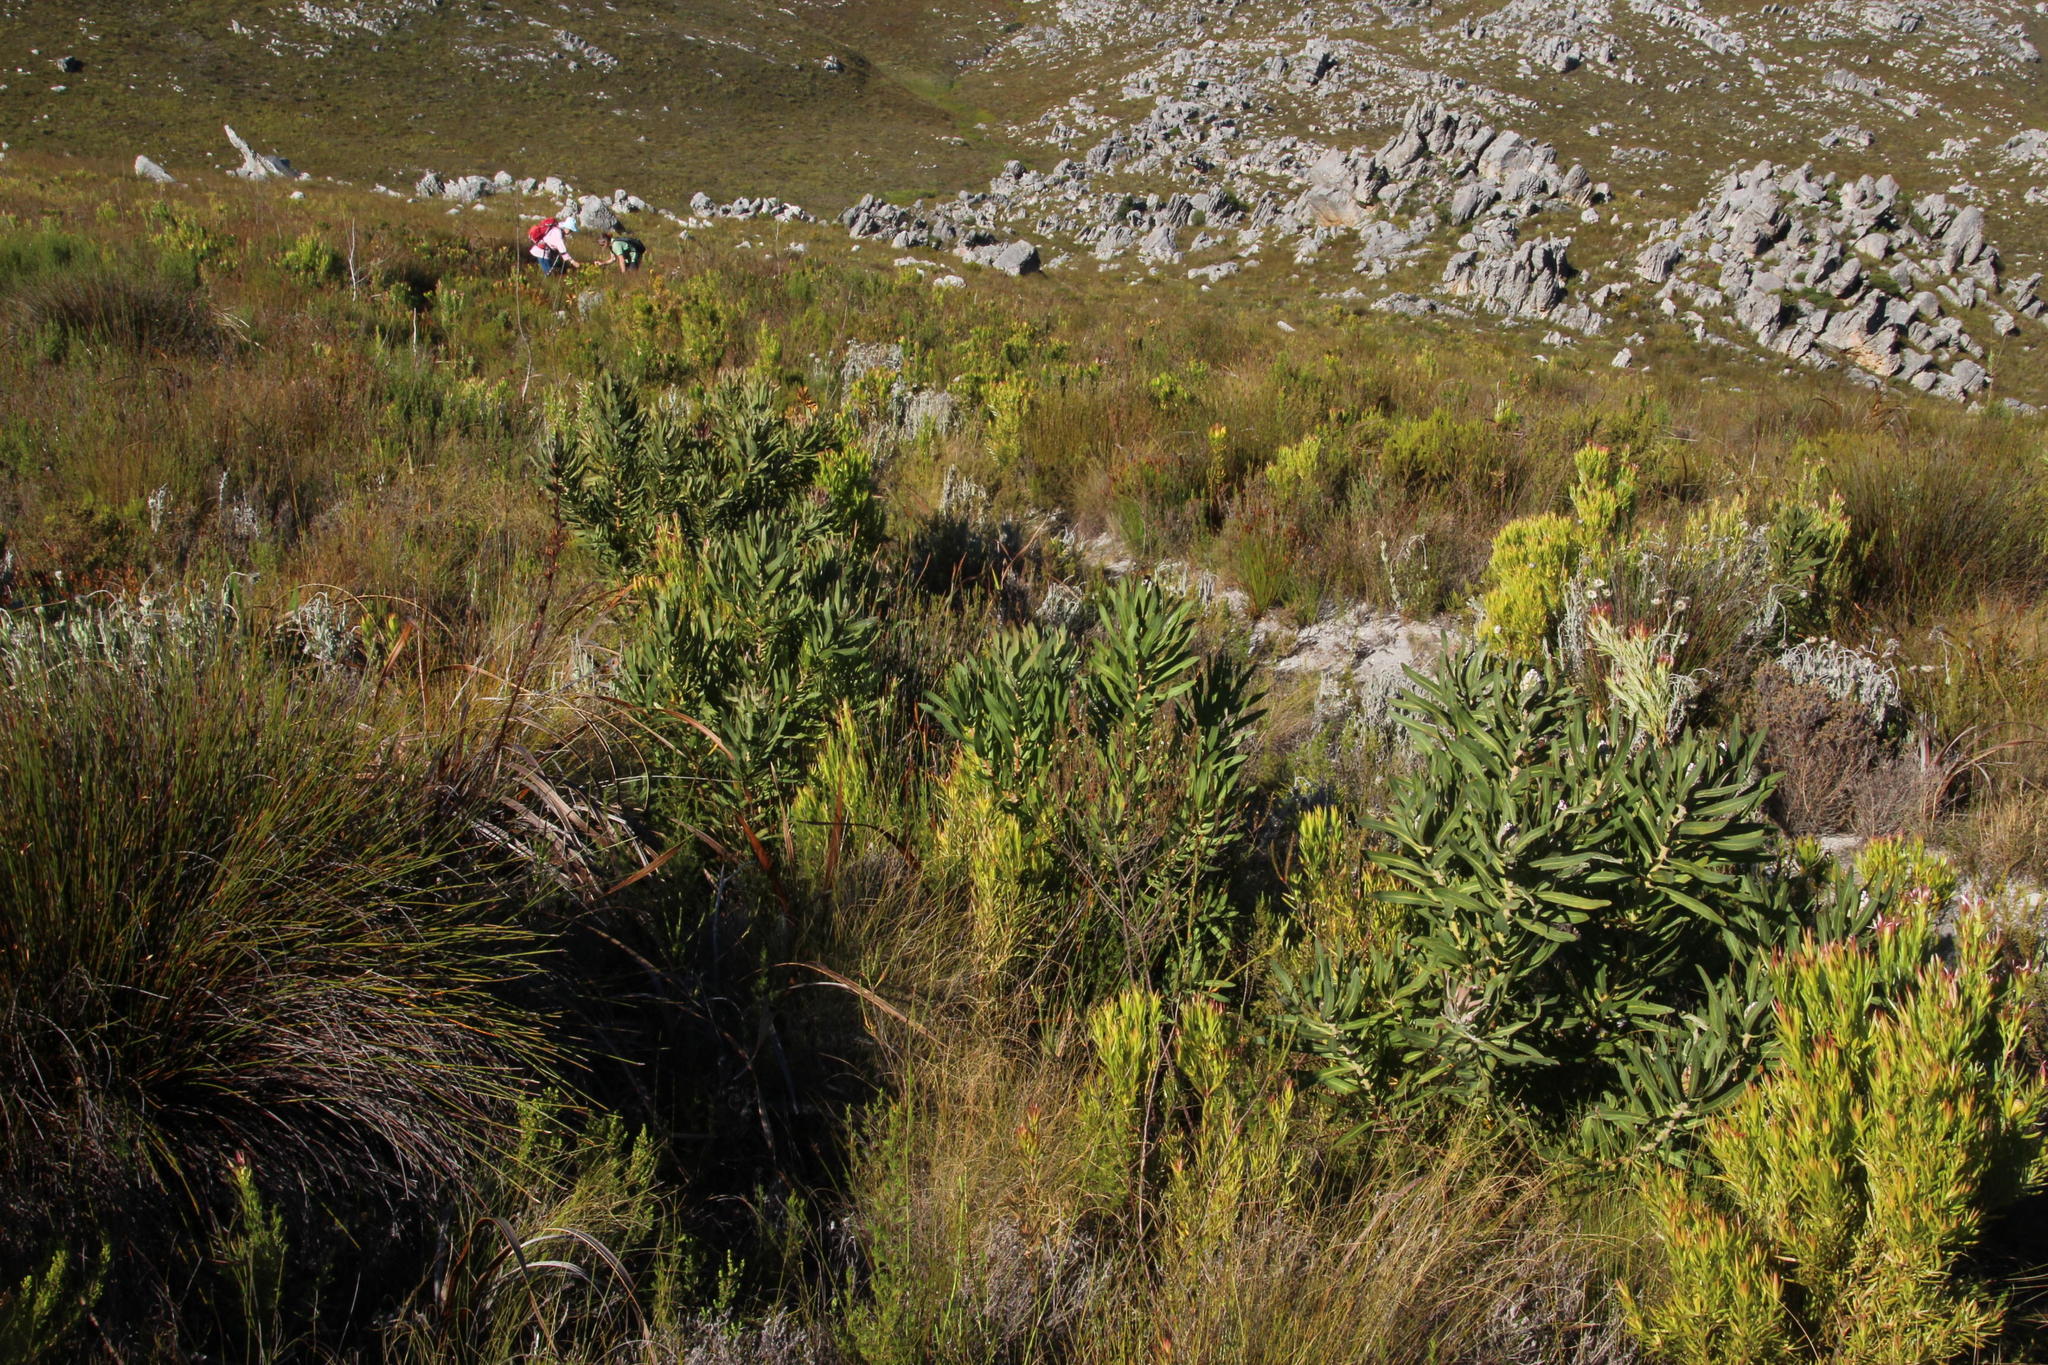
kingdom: Plantae
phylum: Tracheophyta
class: Magnoliopsida
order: Proteales
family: Proteaceae
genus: Protea
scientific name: Protea neriifolia
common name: Blue sugarbush
